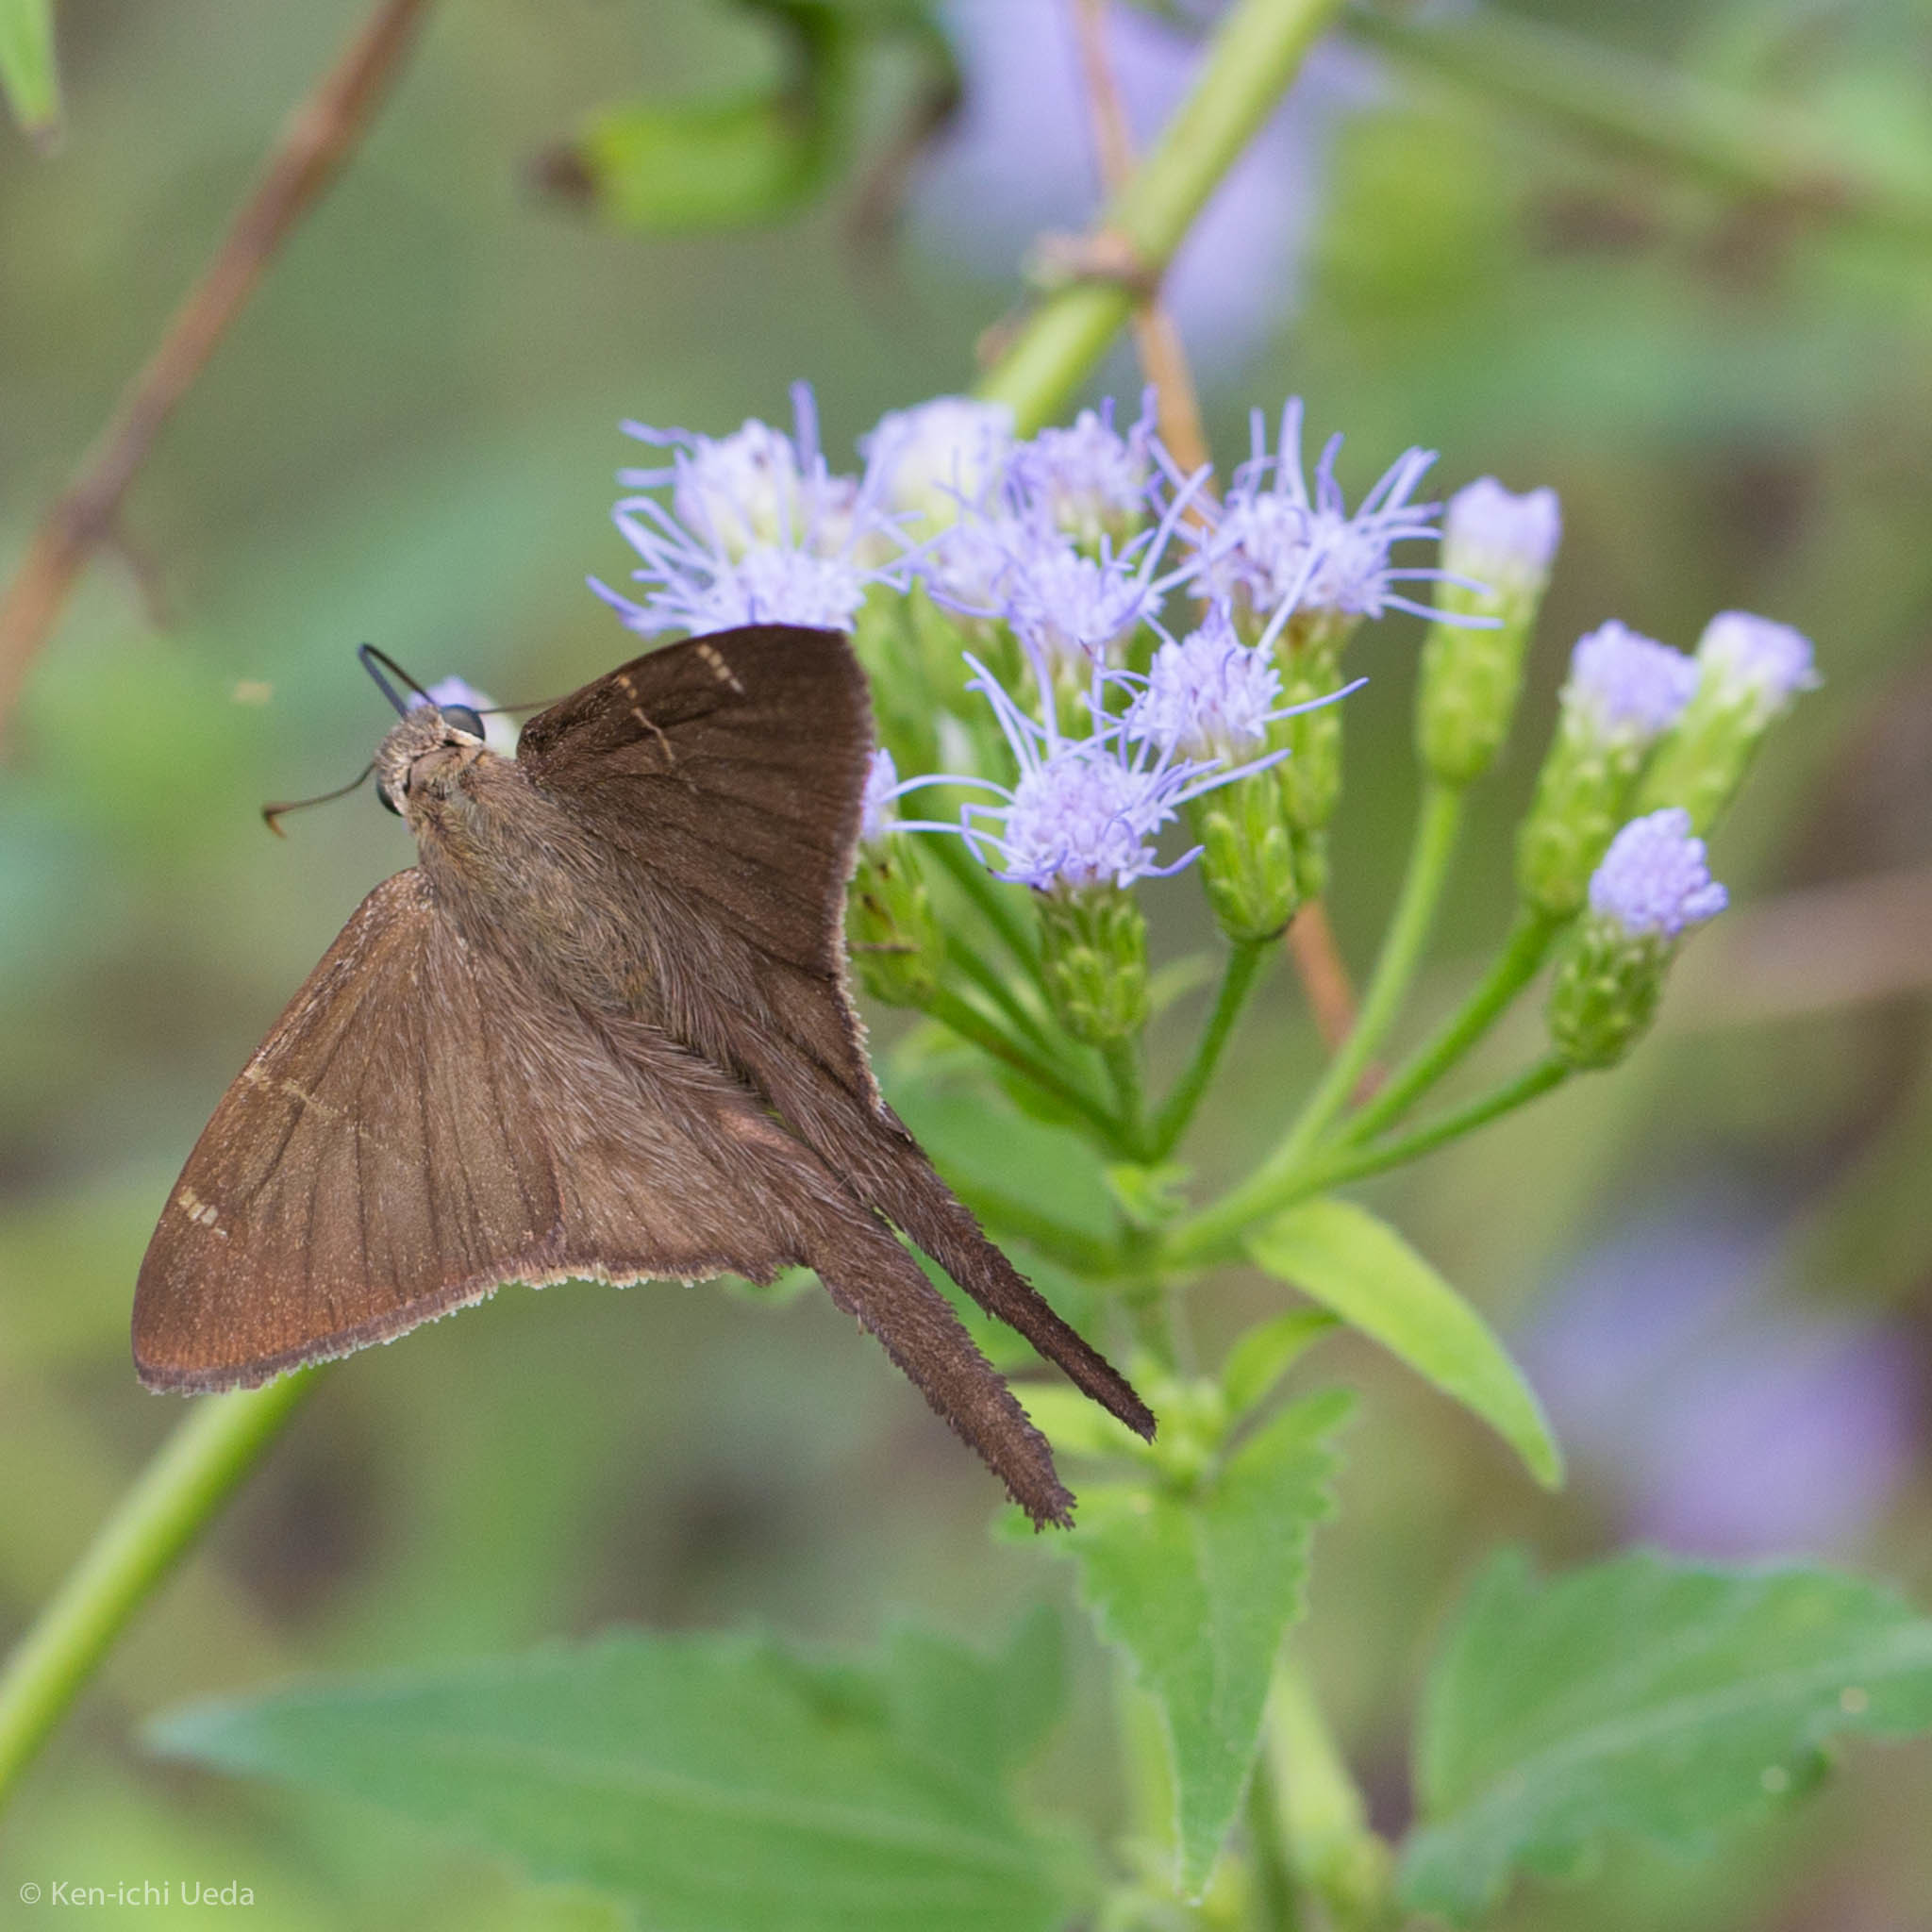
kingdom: Animalia
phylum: Arthropoda
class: Insecta
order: Lepidoptera
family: Hesperiidae
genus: Urbanus
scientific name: Urbanus procne
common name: Brown longtail
